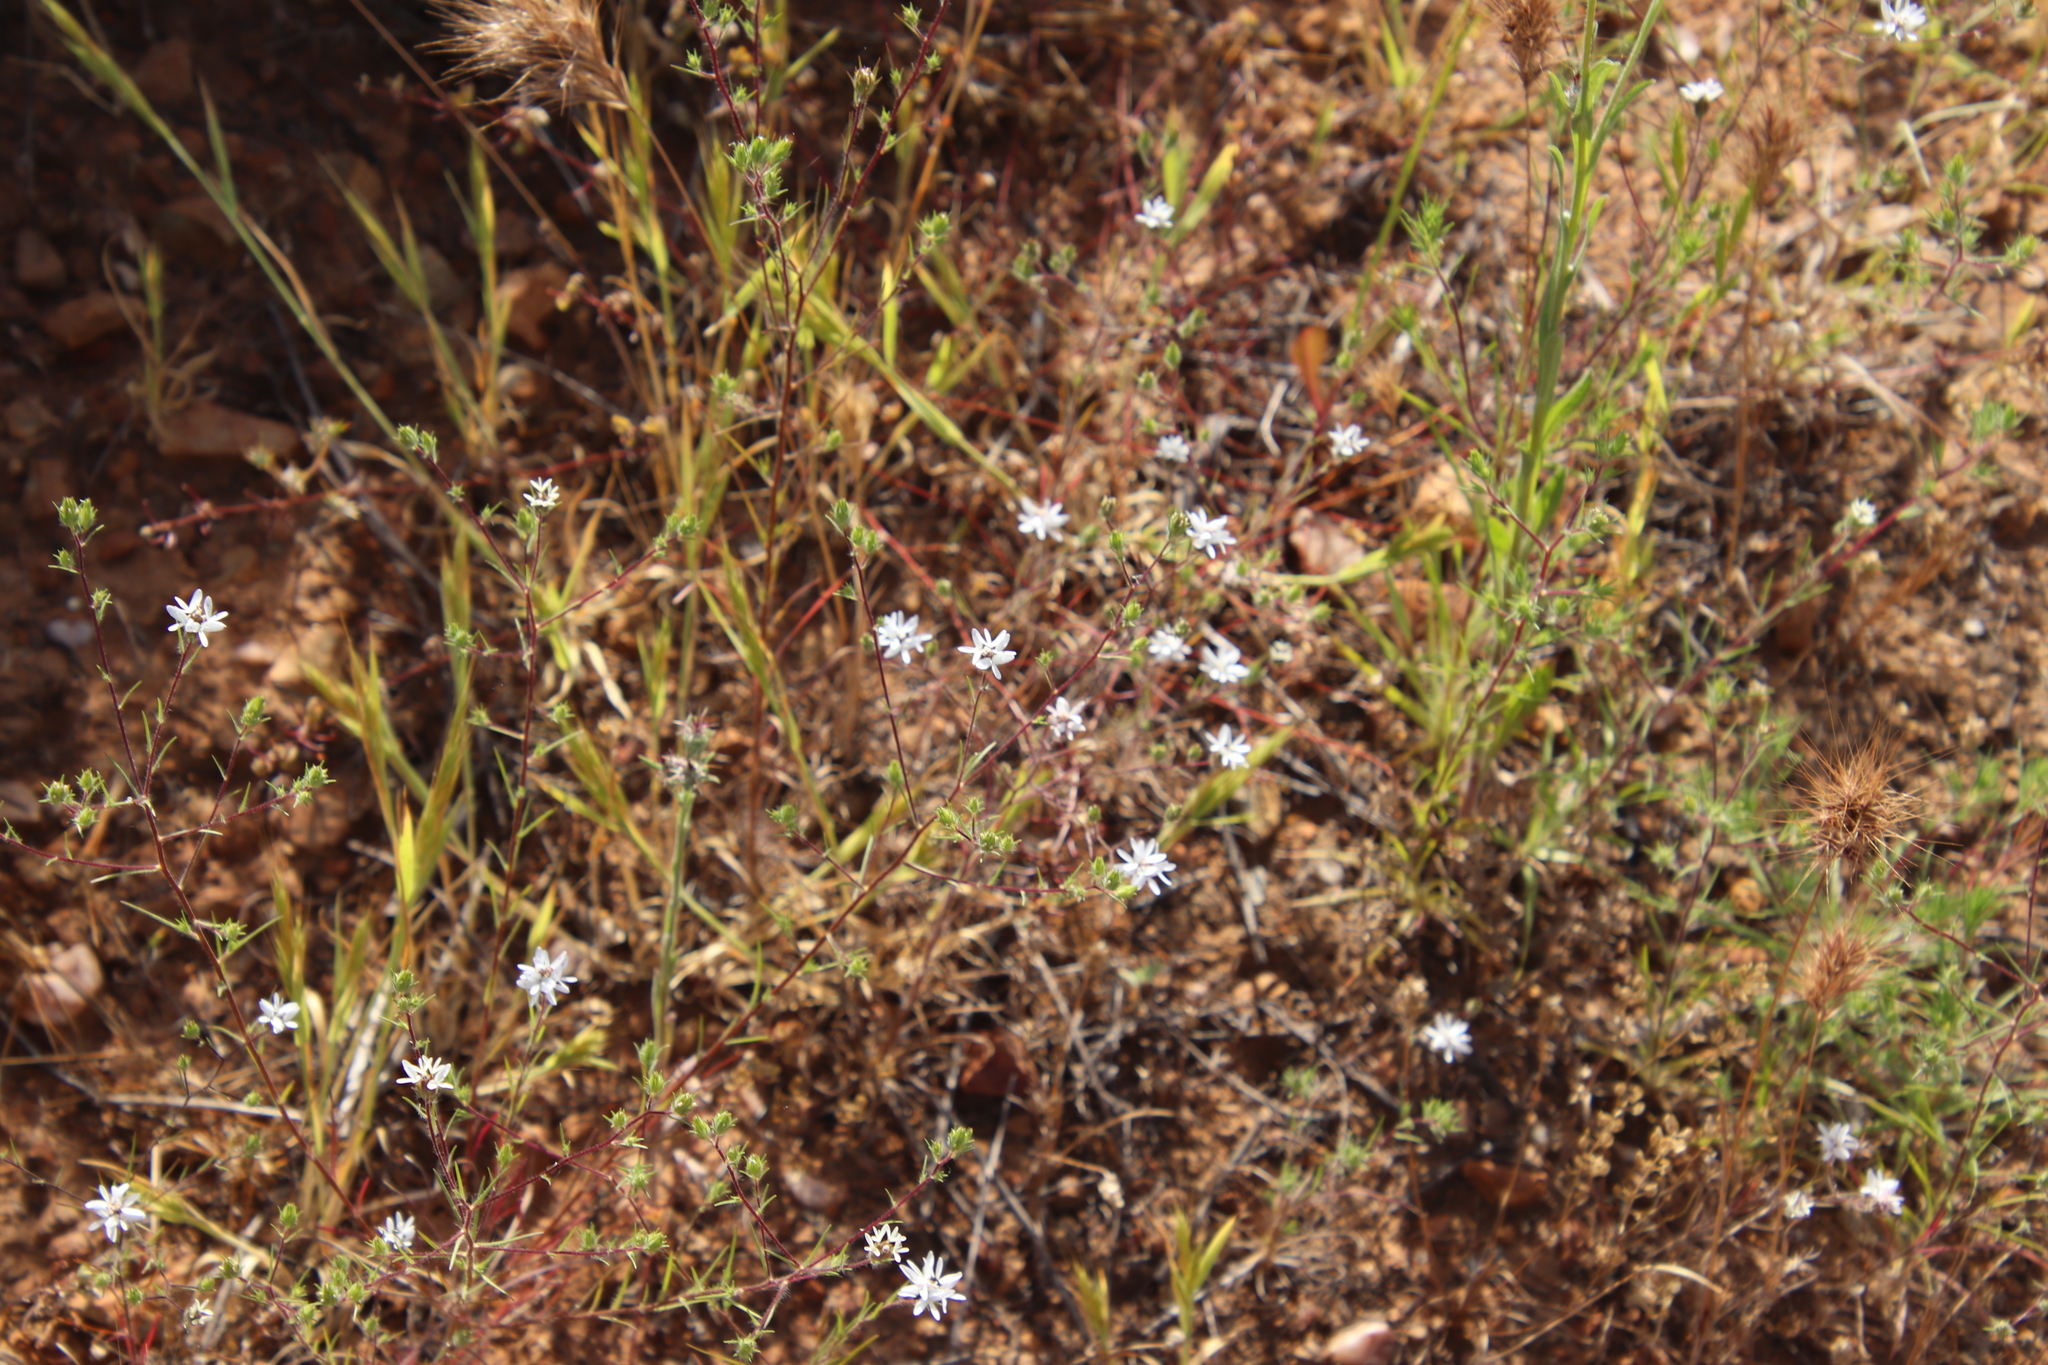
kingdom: Plantae
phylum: Tracheophyta
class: Magnoliopsida
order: Asterales
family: Asteraceae
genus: Osmadenia
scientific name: Osmadenia tenella
